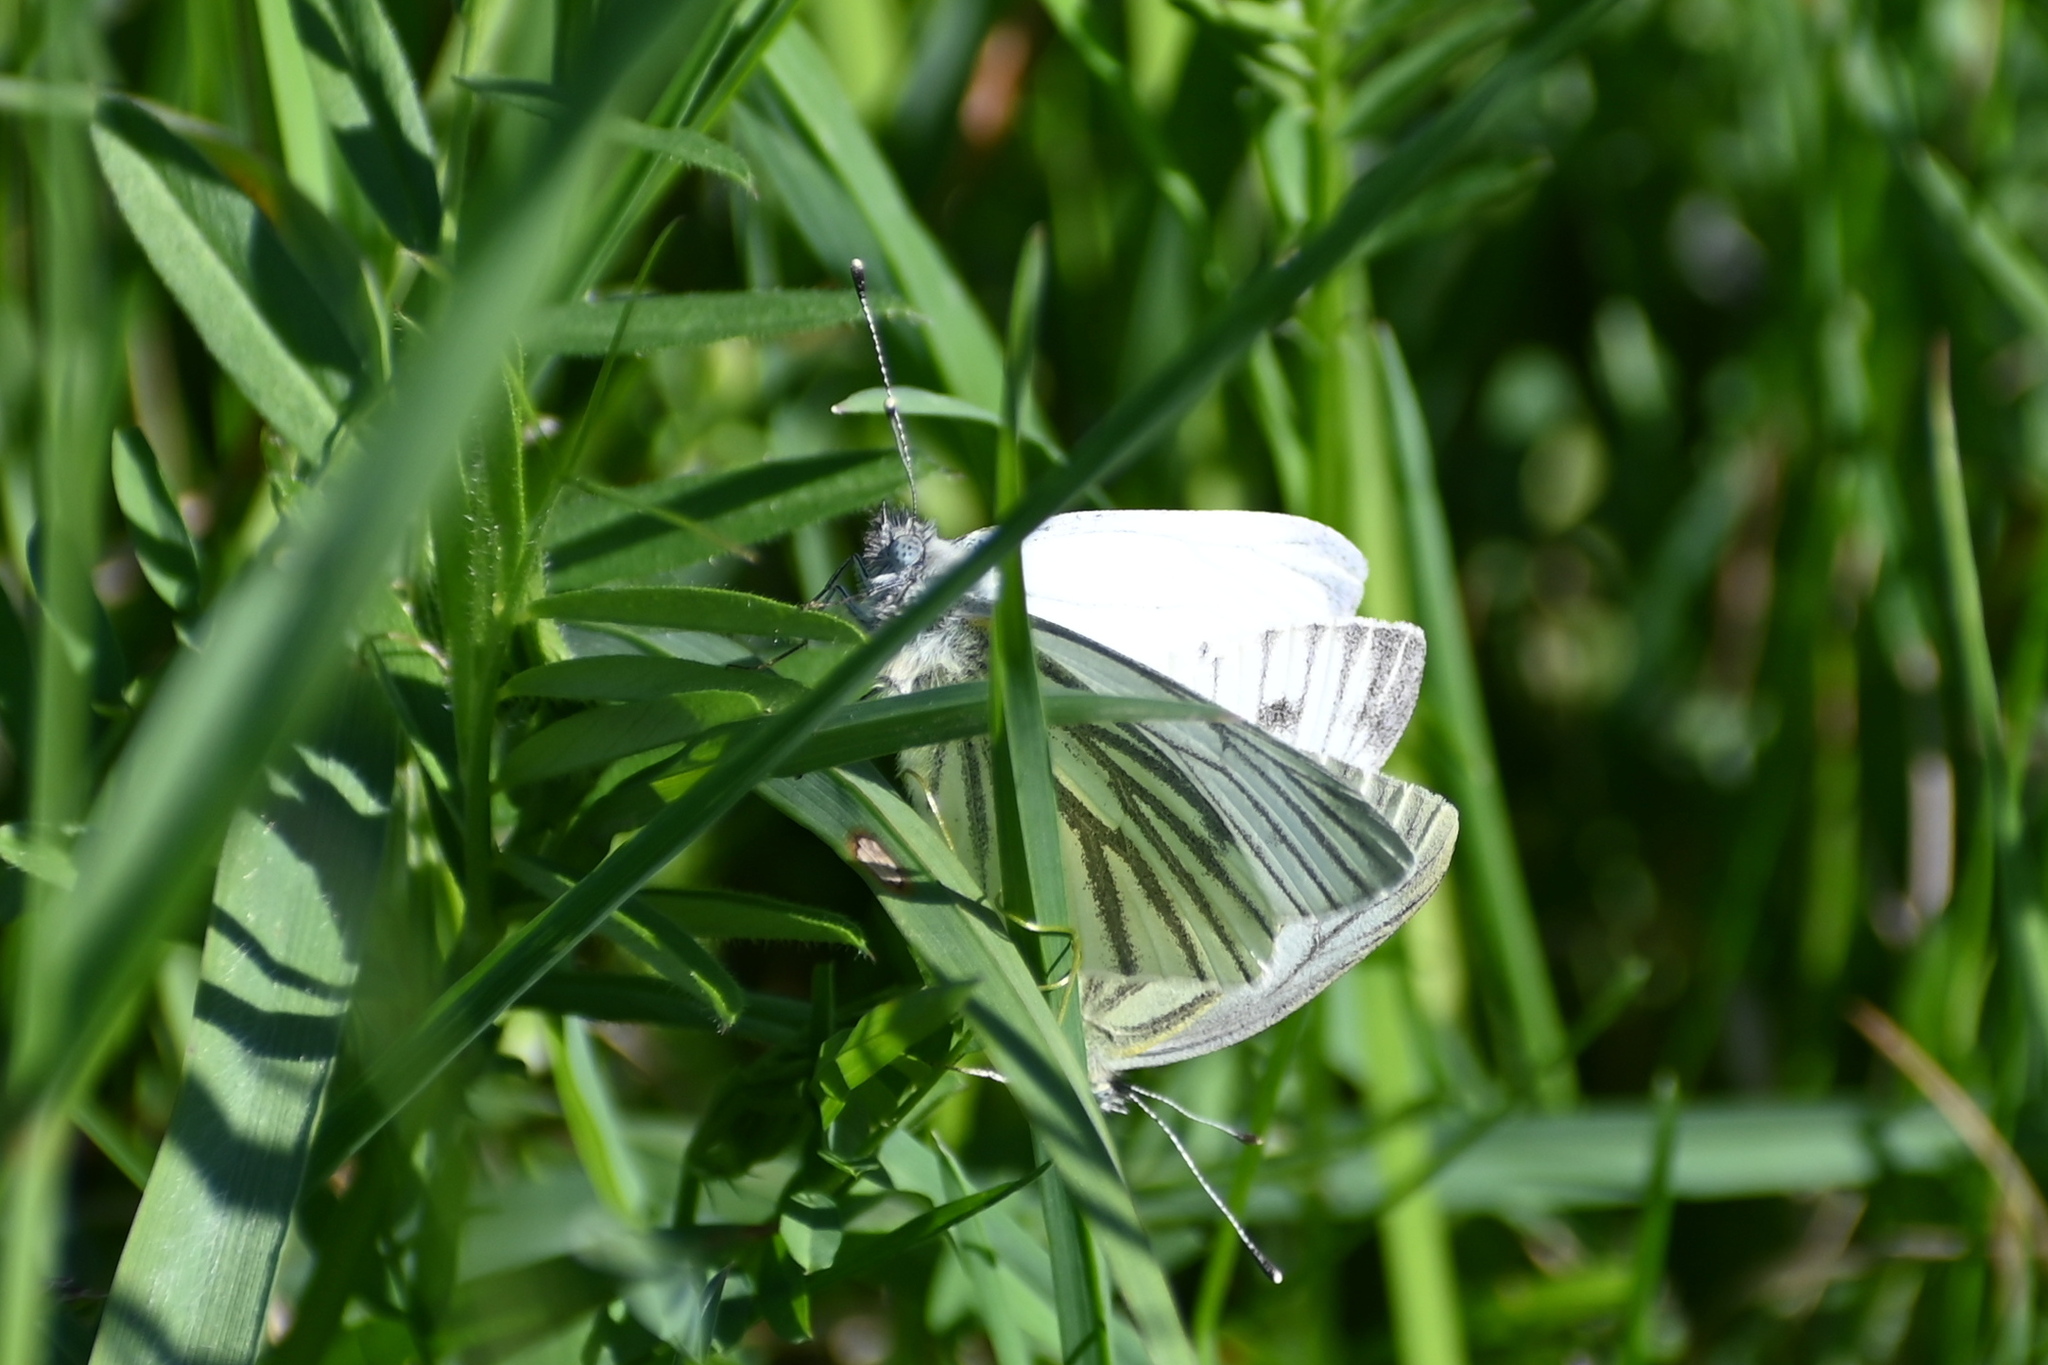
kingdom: Animalia
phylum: Arthropoda
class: Insecta
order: Lepidoptera
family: Pieridae
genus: Pieris
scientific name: Pieris napi
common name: Green-veined white
